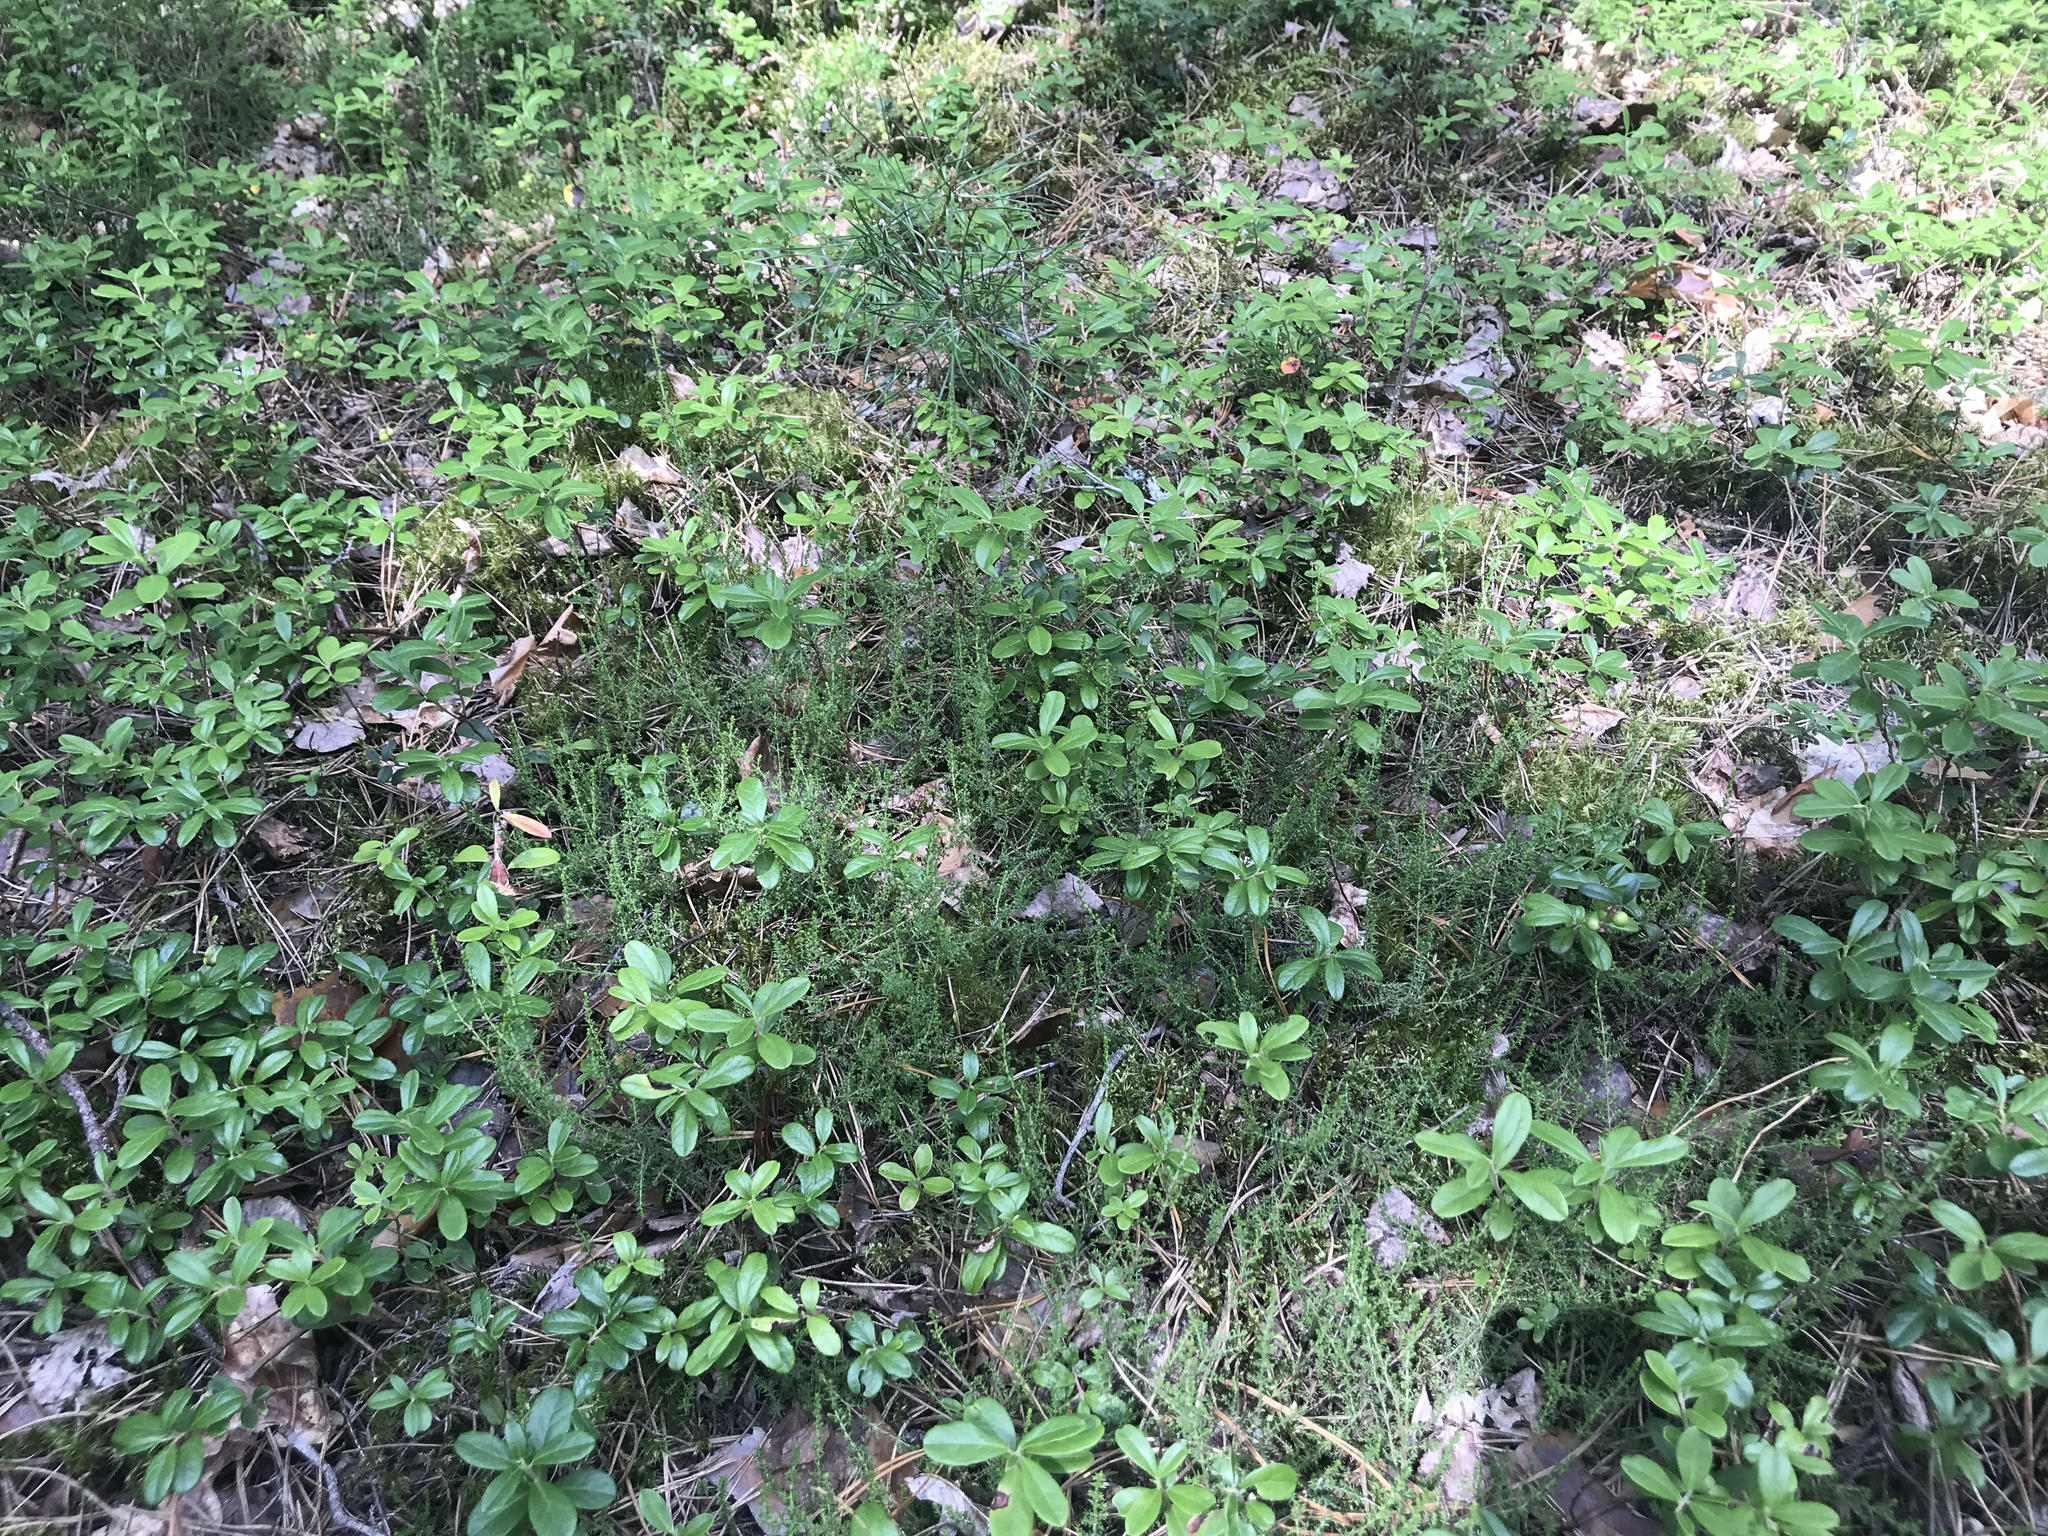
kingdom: Plantae
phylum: Tracheophyta
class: Magnoliopsida
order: Ericales
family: Ericaceae
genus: Calluna
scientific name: Calluna vulgaris
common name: Heather
